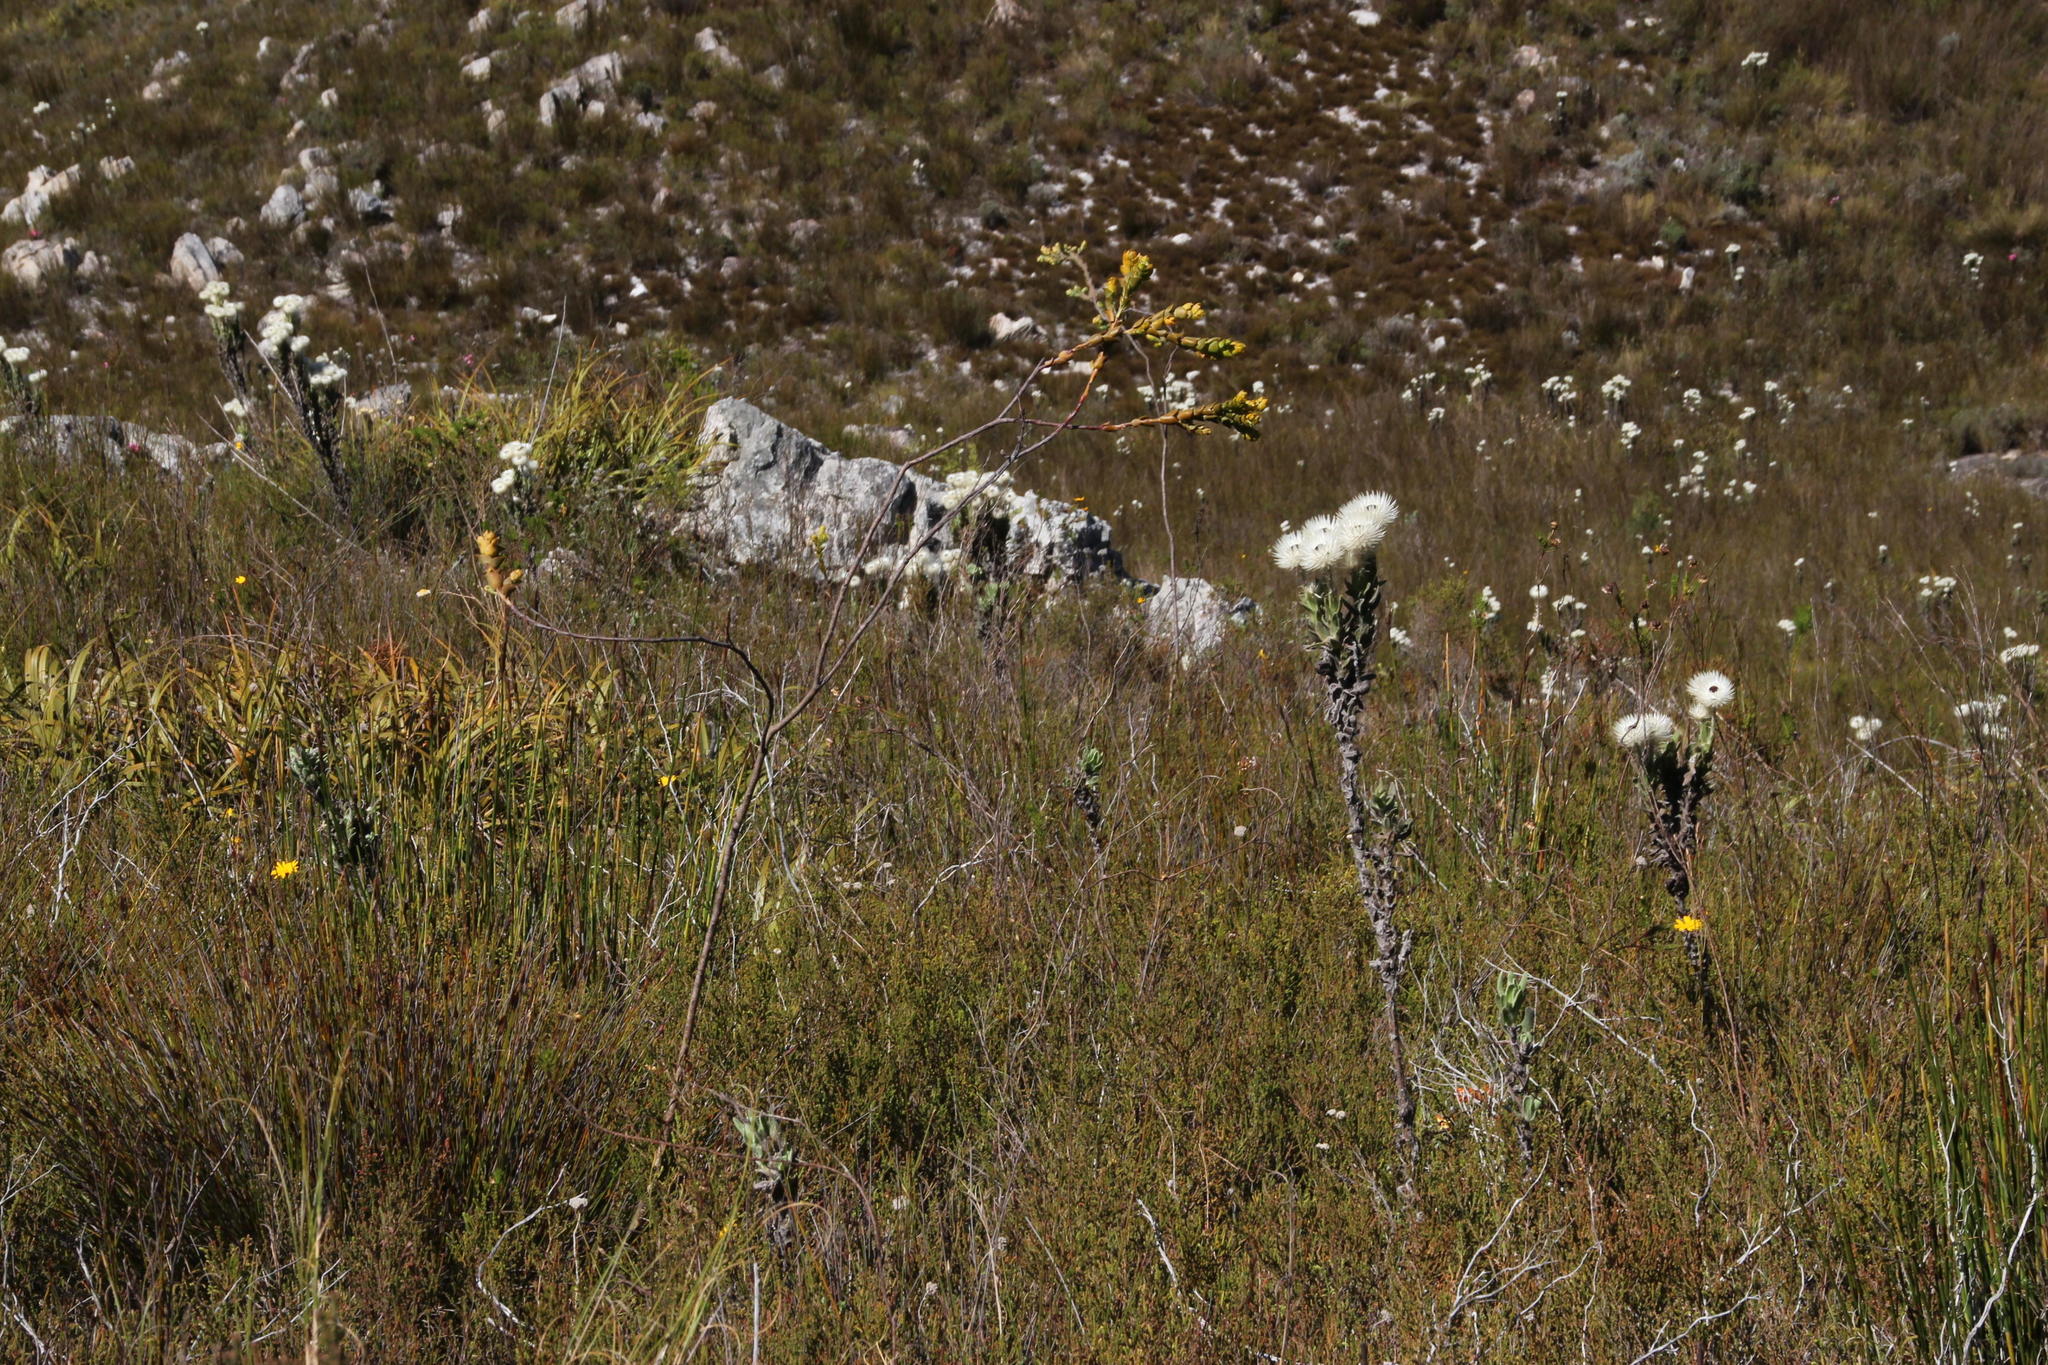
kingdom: Plantae
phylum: Tracheophyta
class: Magnoliopsida
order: Santalales
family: Thesiaceae
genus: Thesium
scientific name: Thesium euphorbioides
